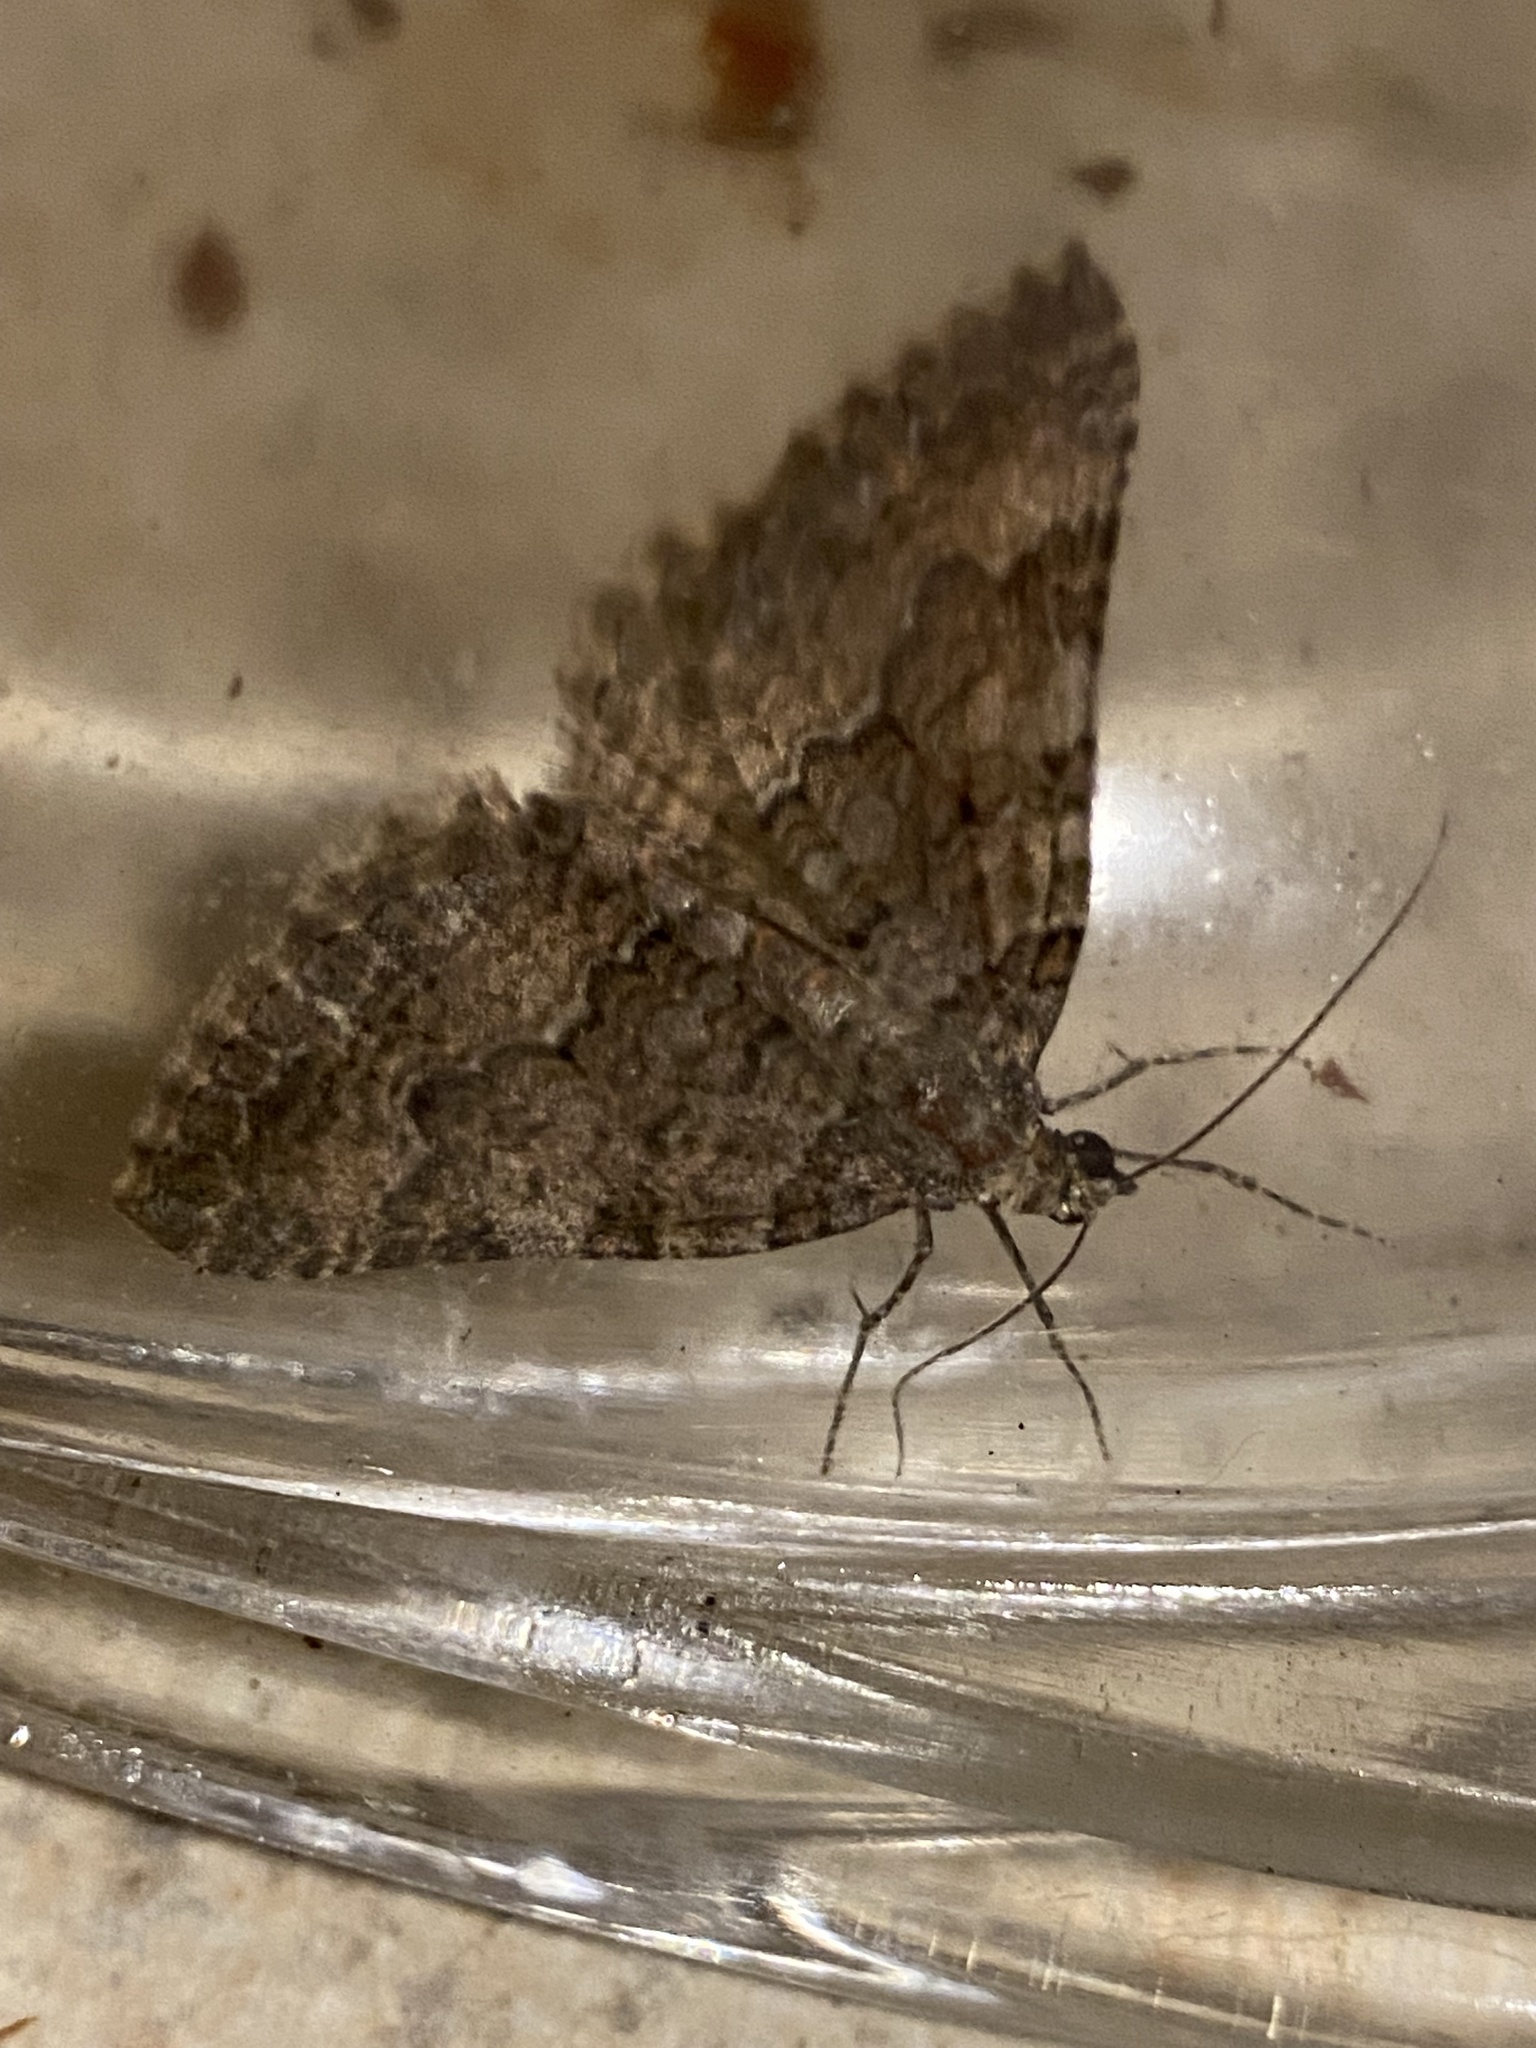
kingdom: Animalia
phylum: Arthropoda
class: Insecta
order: Lepidoptera
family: Geometridae
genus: Archirhoe
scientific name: Archirhoe neomexicana
